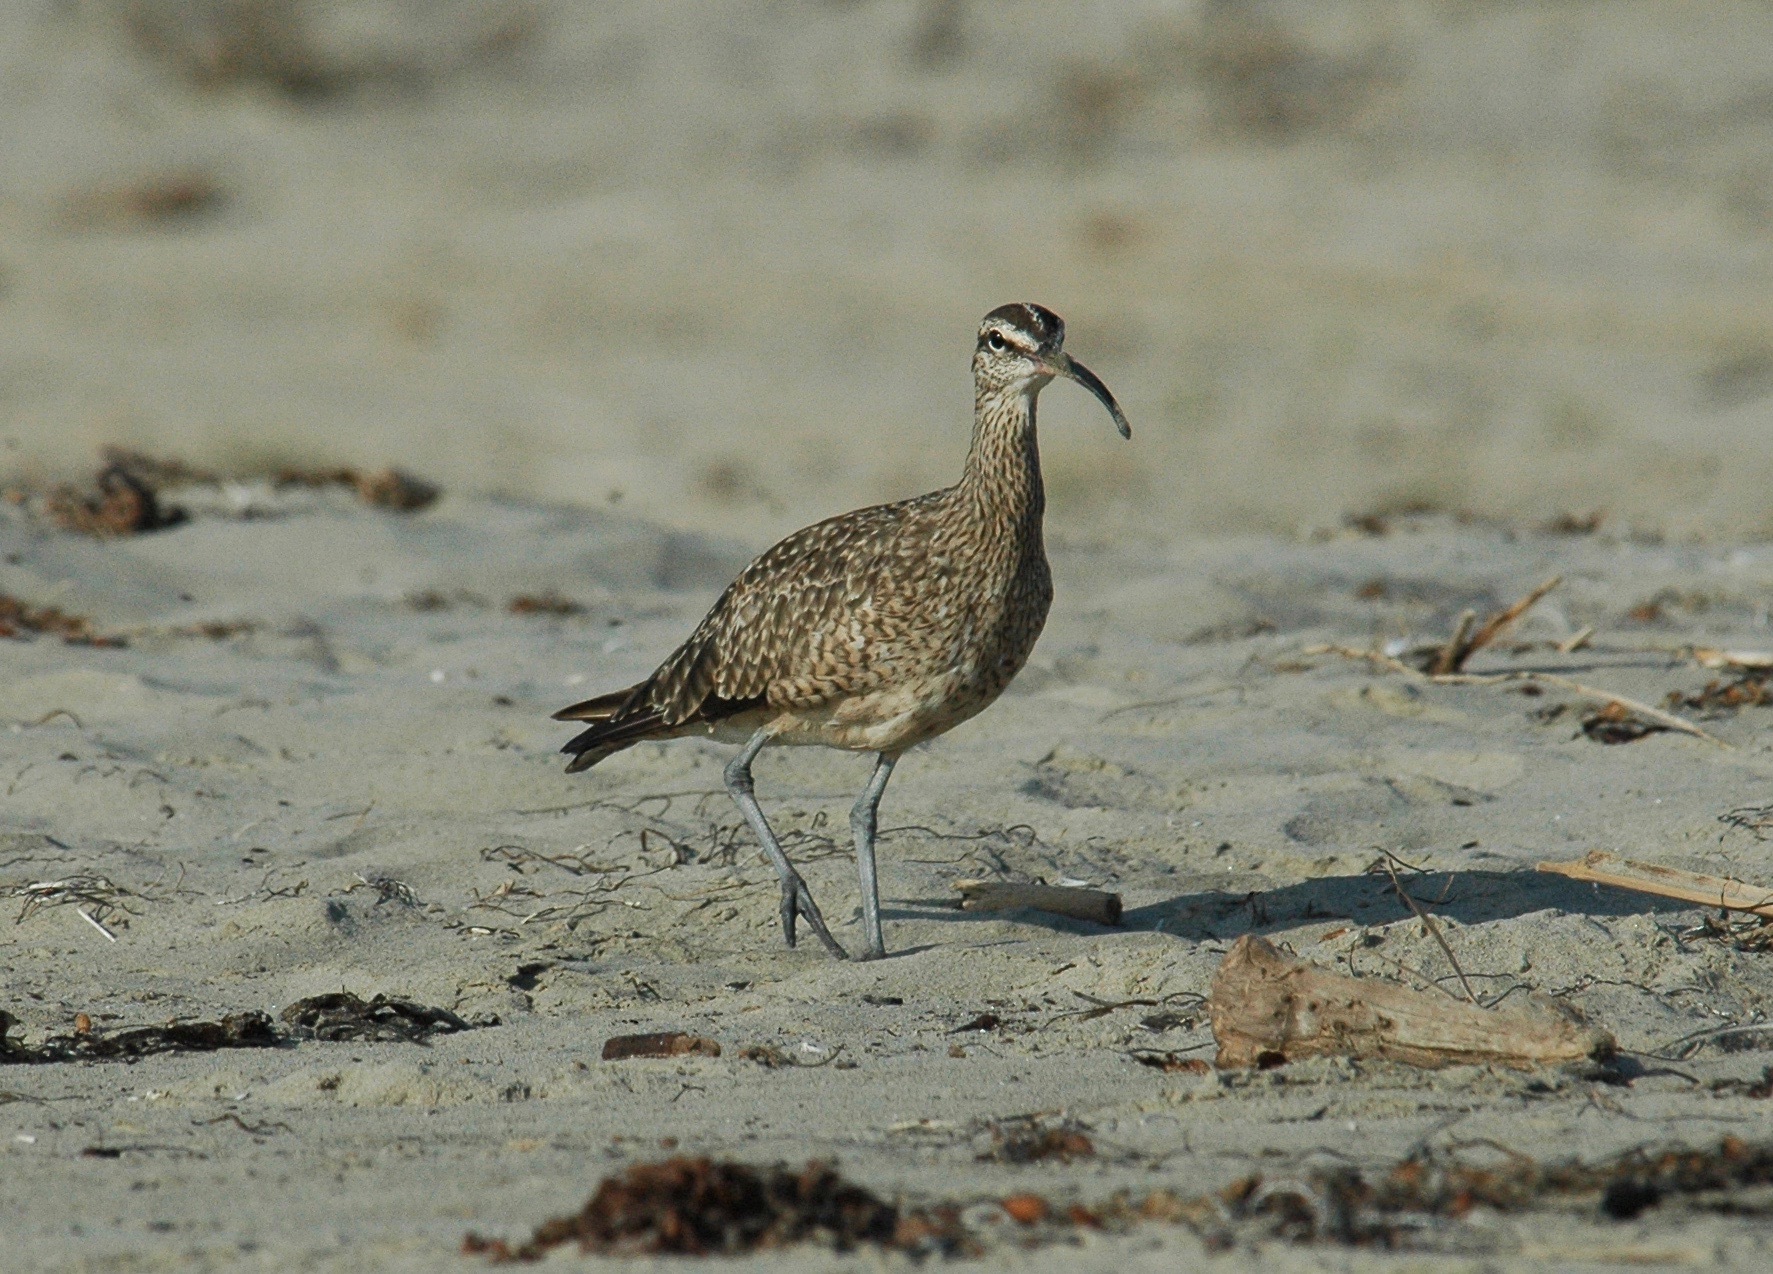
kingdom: Animalia
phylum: Chordata
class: Aves
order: Charadriiformes
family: Scolopacidae
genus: Numenius
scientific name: Numenius phaeopus
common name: Whimbrel
